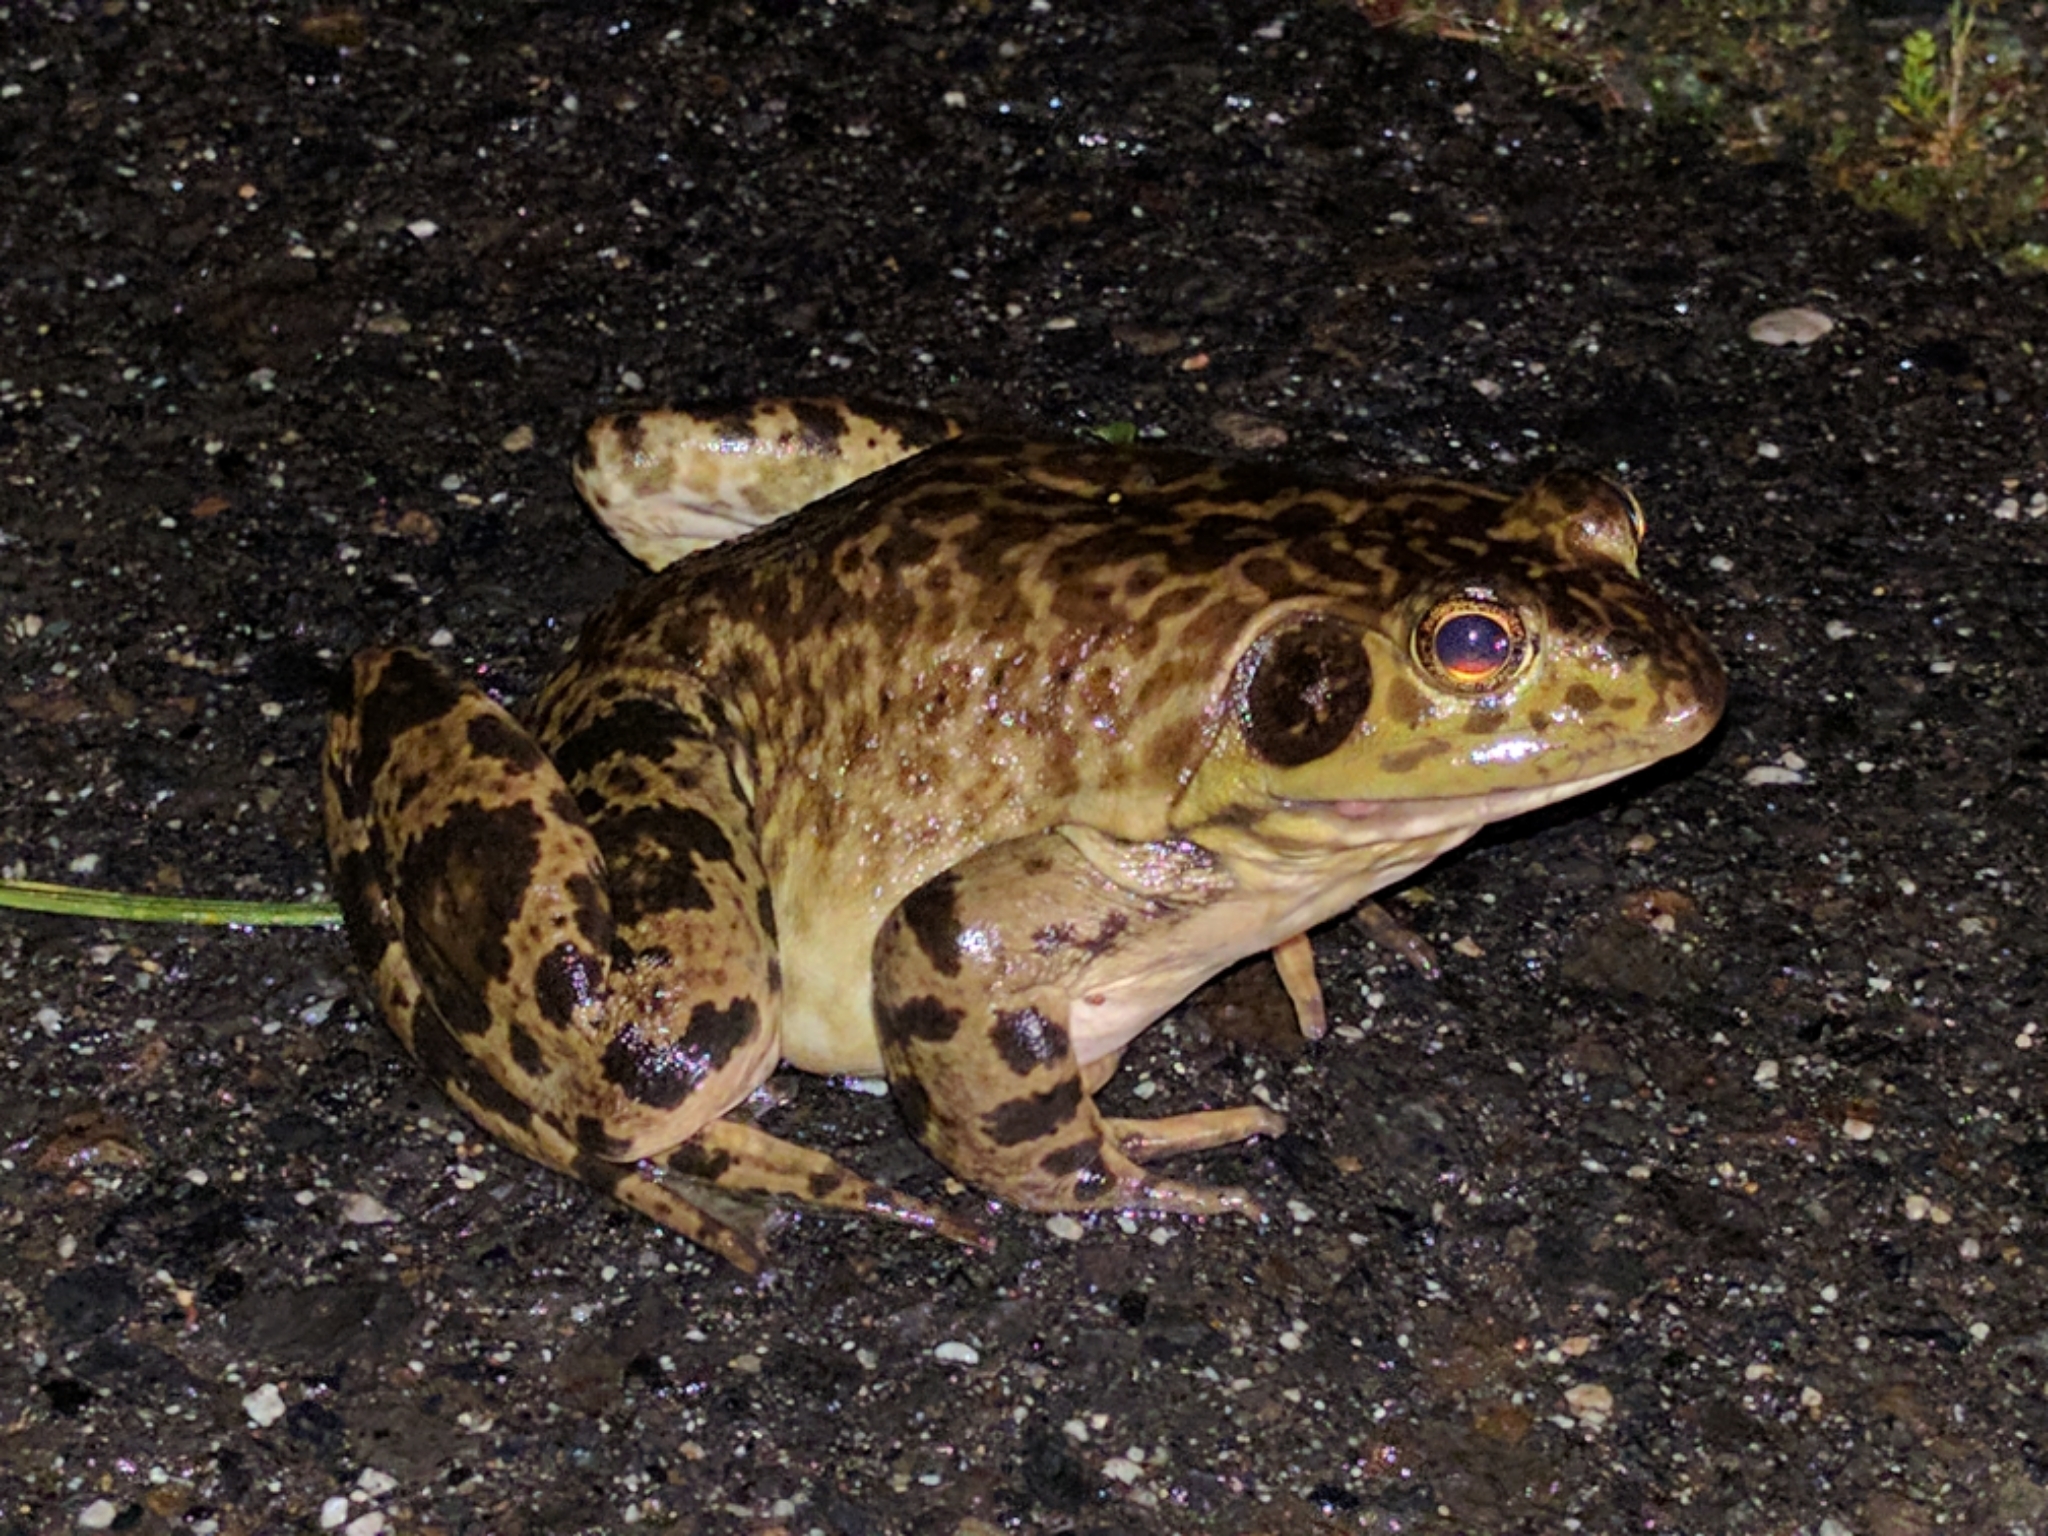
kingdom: Animalia
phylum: Chordata
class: Amphibia
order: Anura
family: Ranidae
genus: Lithobates
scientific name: Lithobates catesbeianus
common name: American bullfrog
